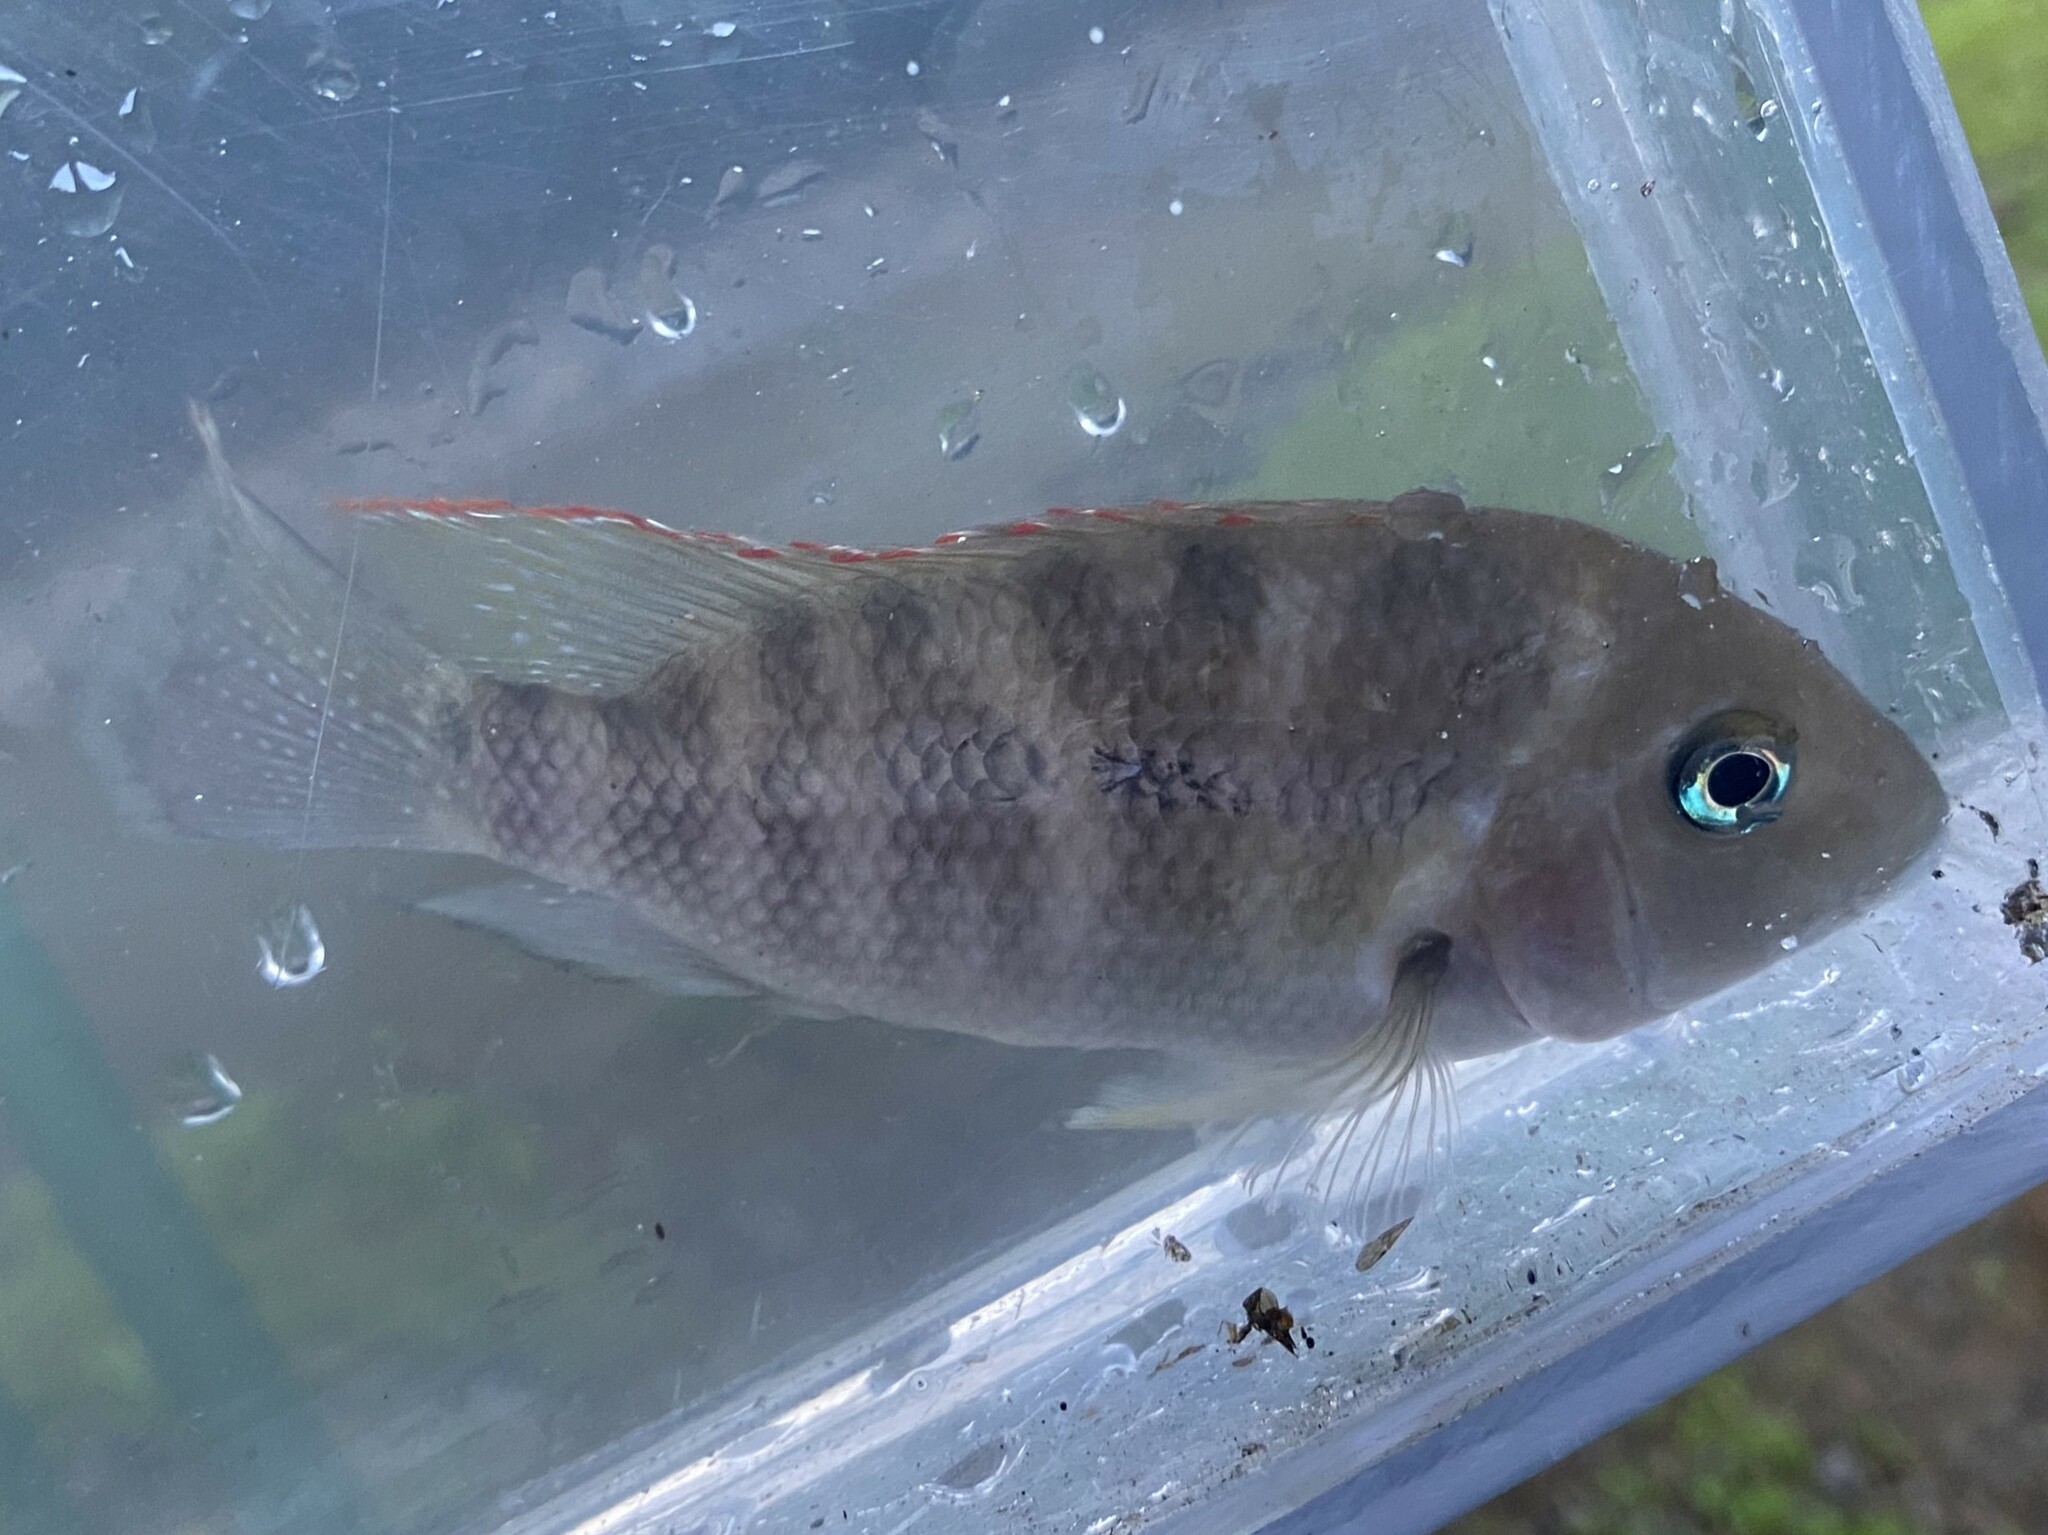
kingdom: Animalia
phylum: Chordata
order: Perciformes
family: Cichlidae
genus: Cribroheros
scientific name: Cribroheros diquis
